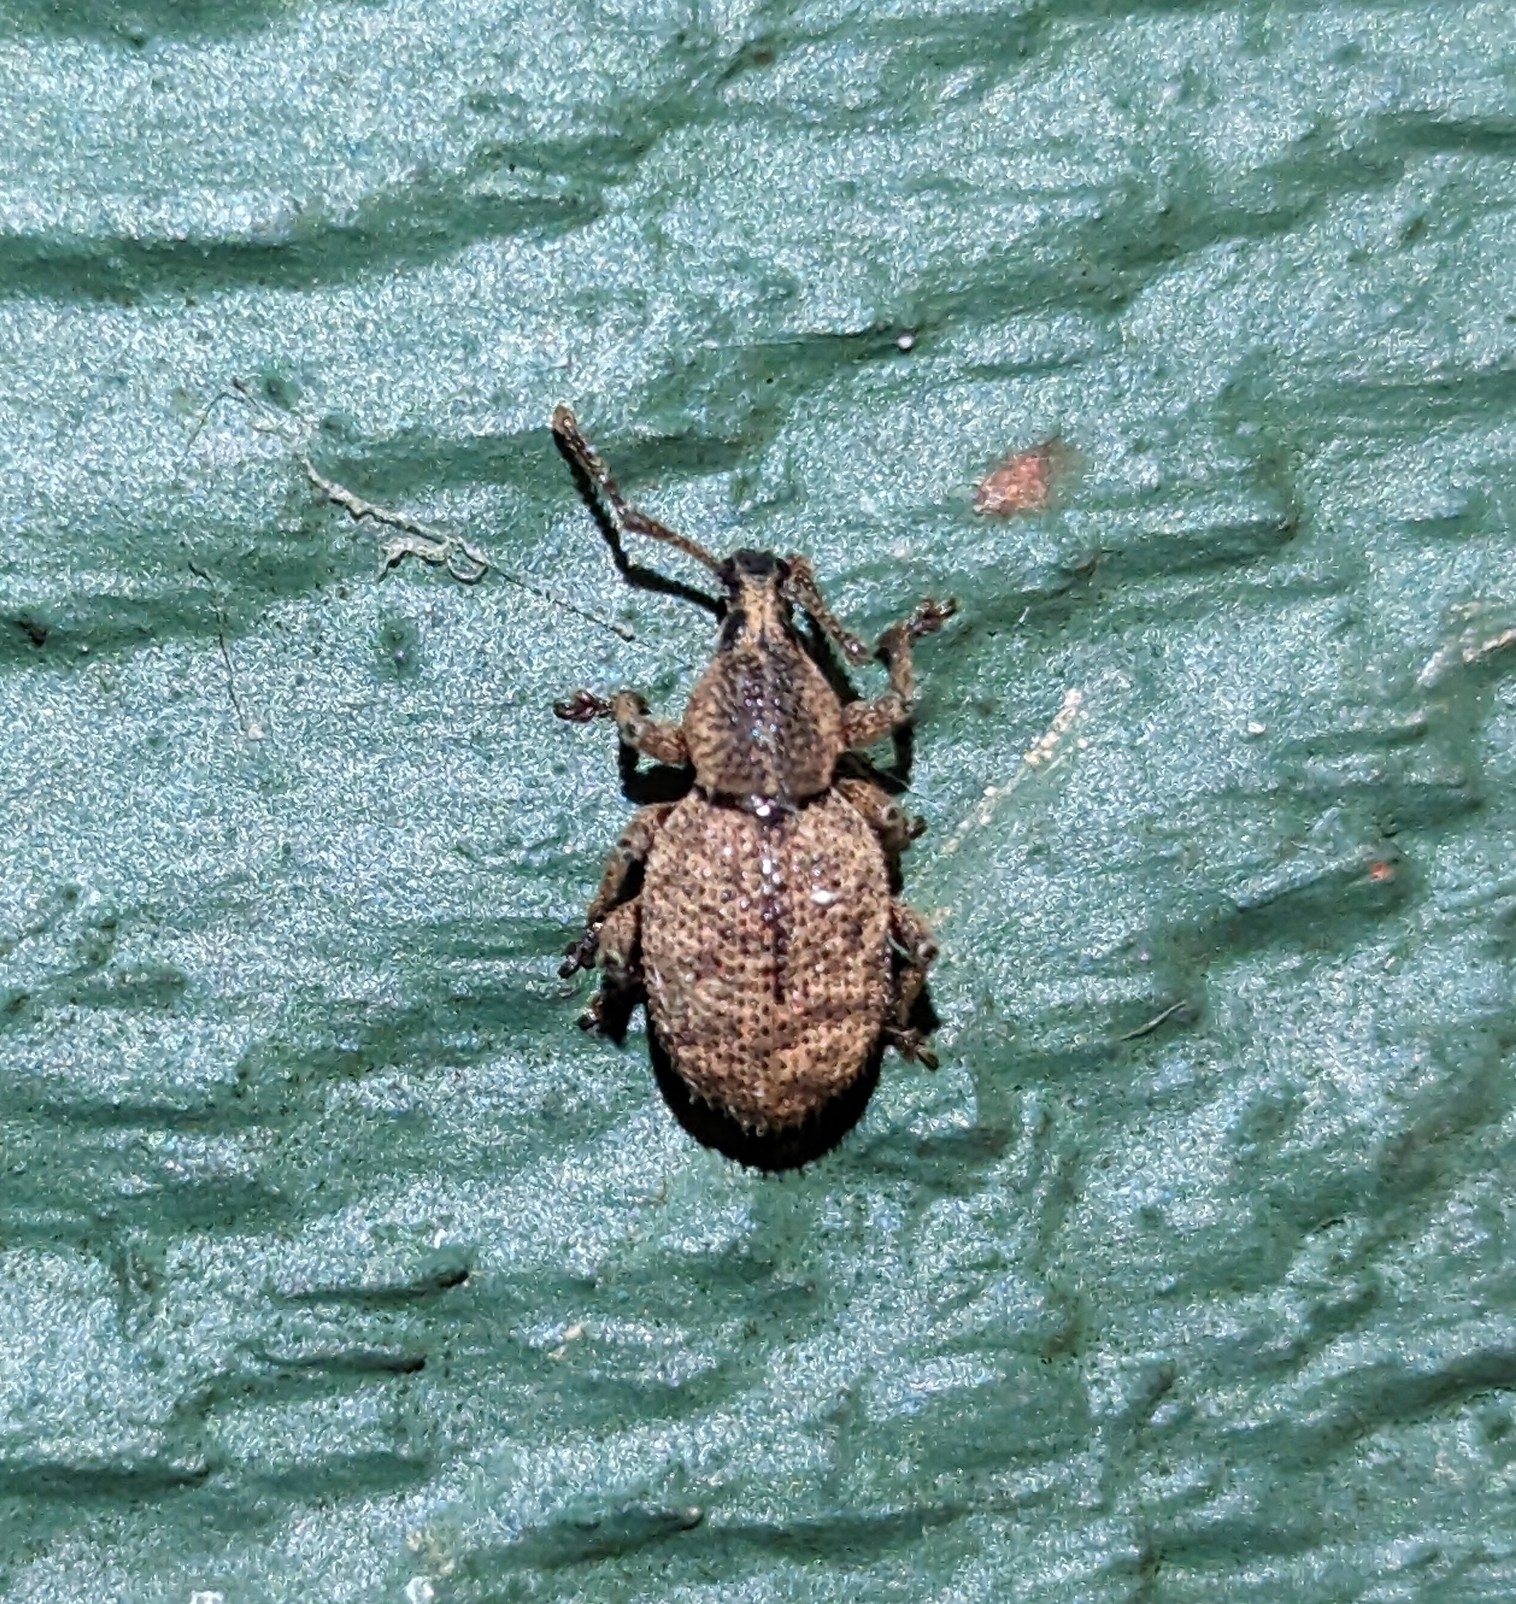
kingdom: Animalia
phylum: Arthropoda
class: Insecta
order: Coleoptera
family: Curculionidae
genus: Otiorhynchus
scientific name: Otiorhynchus singularis
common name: Clay-coloured weevil
